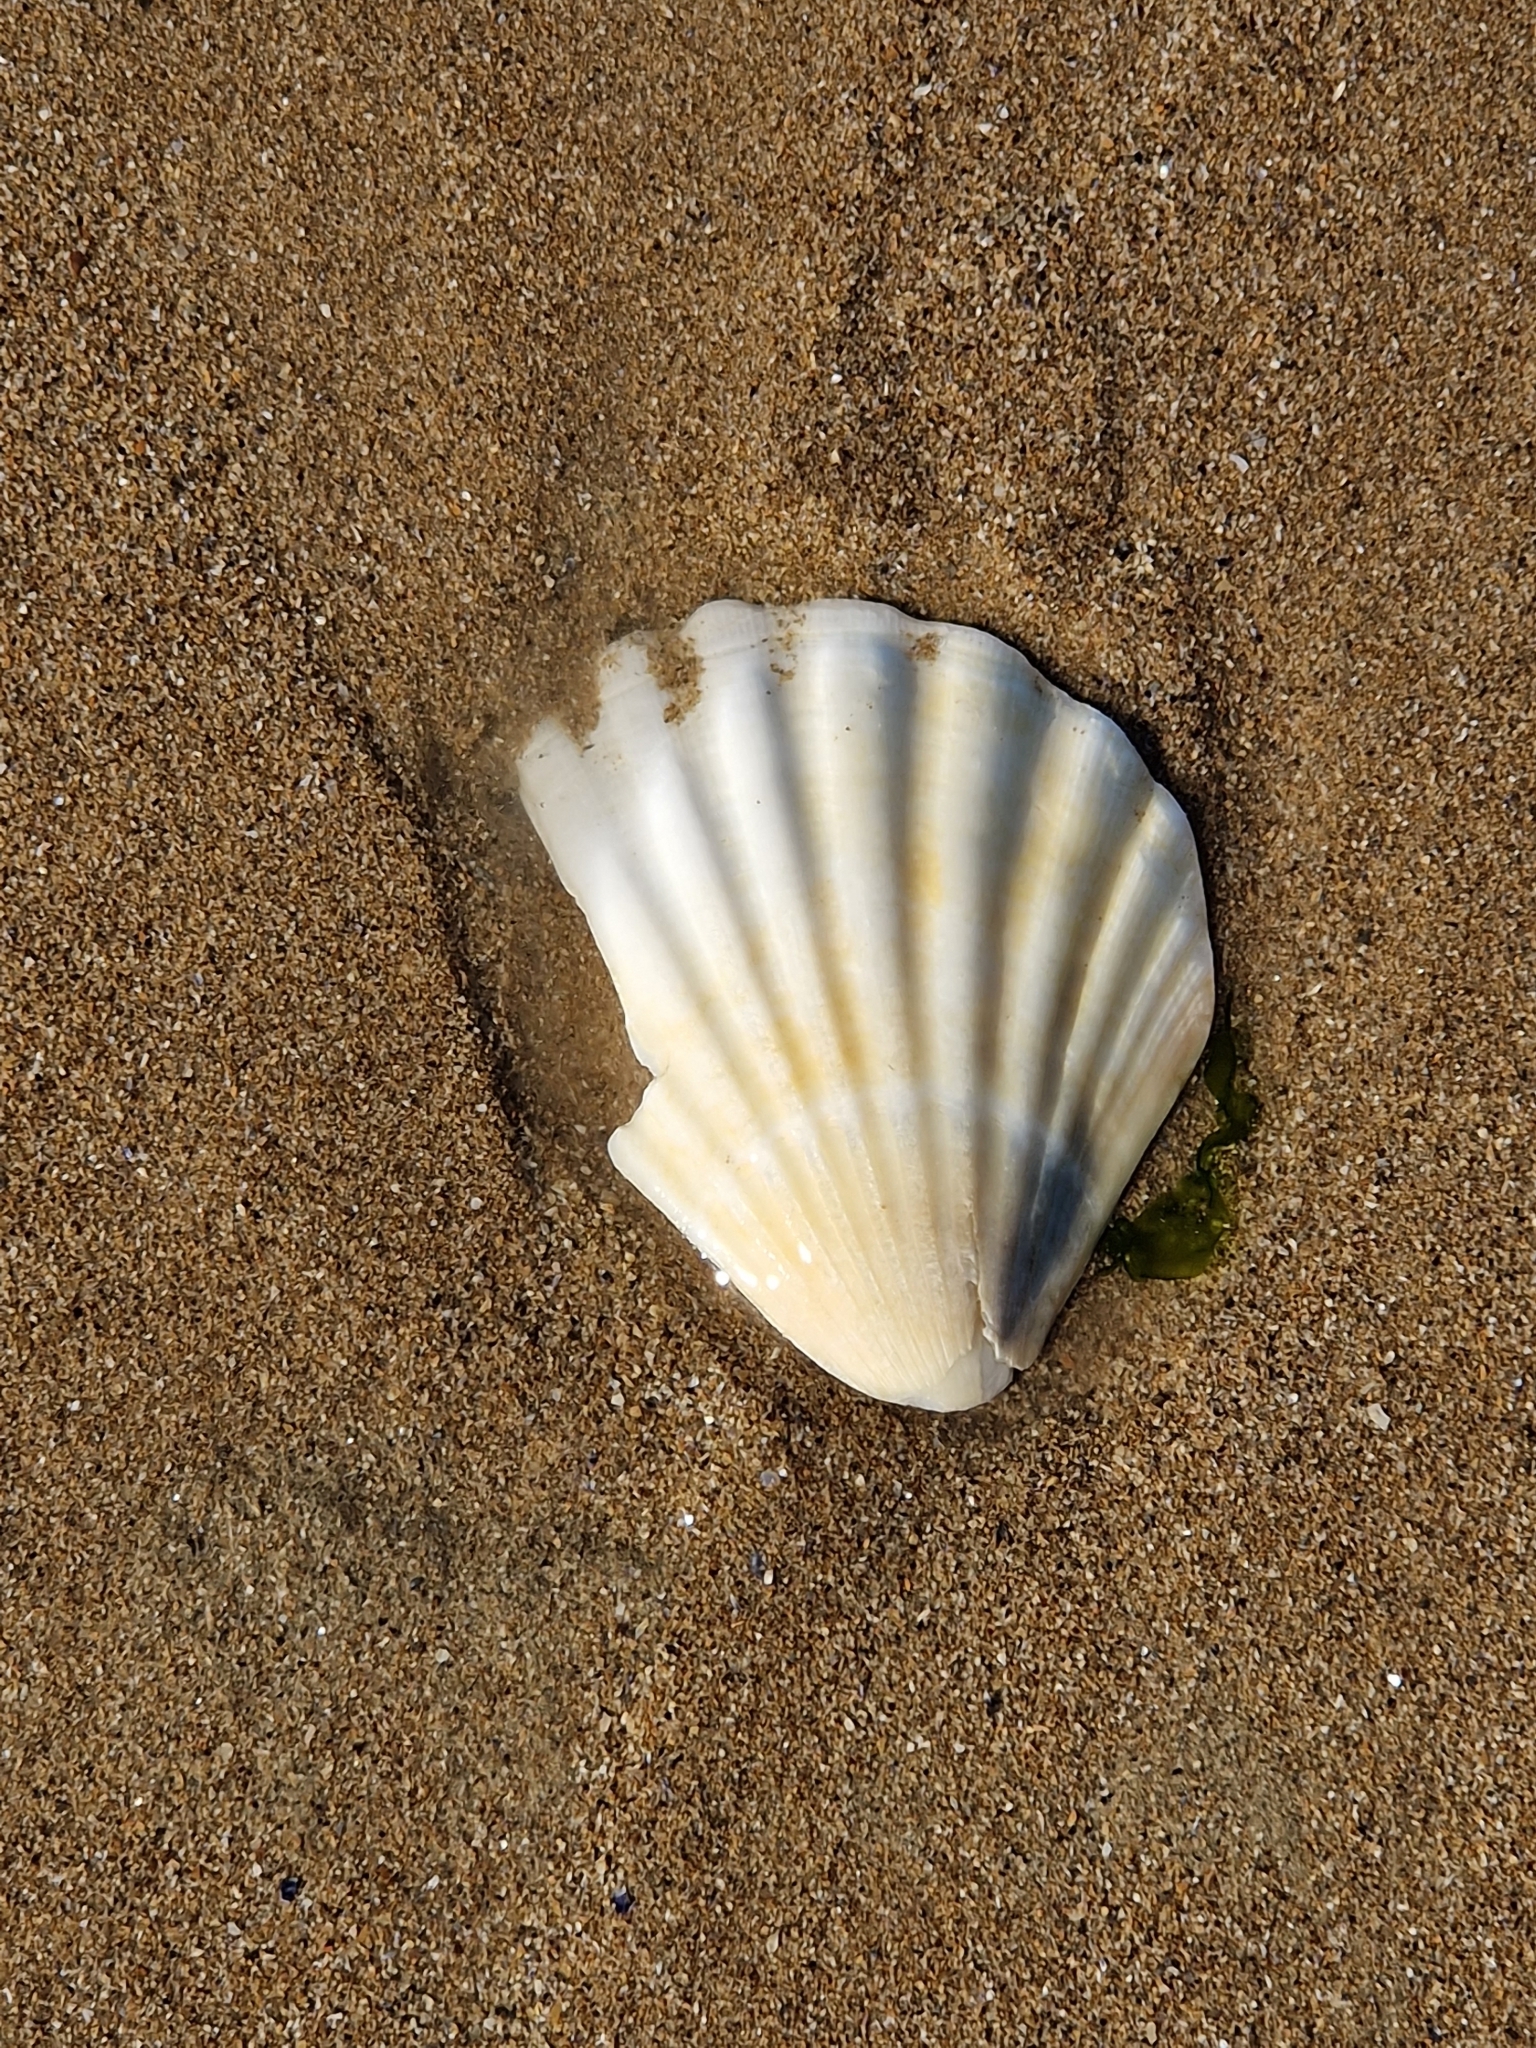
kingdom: Animalia
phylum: Mollusca
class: Bivalvia
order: Pectinida
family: Pectinidae
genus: Pecten
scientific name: Pecten maximus
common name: Great scallop
